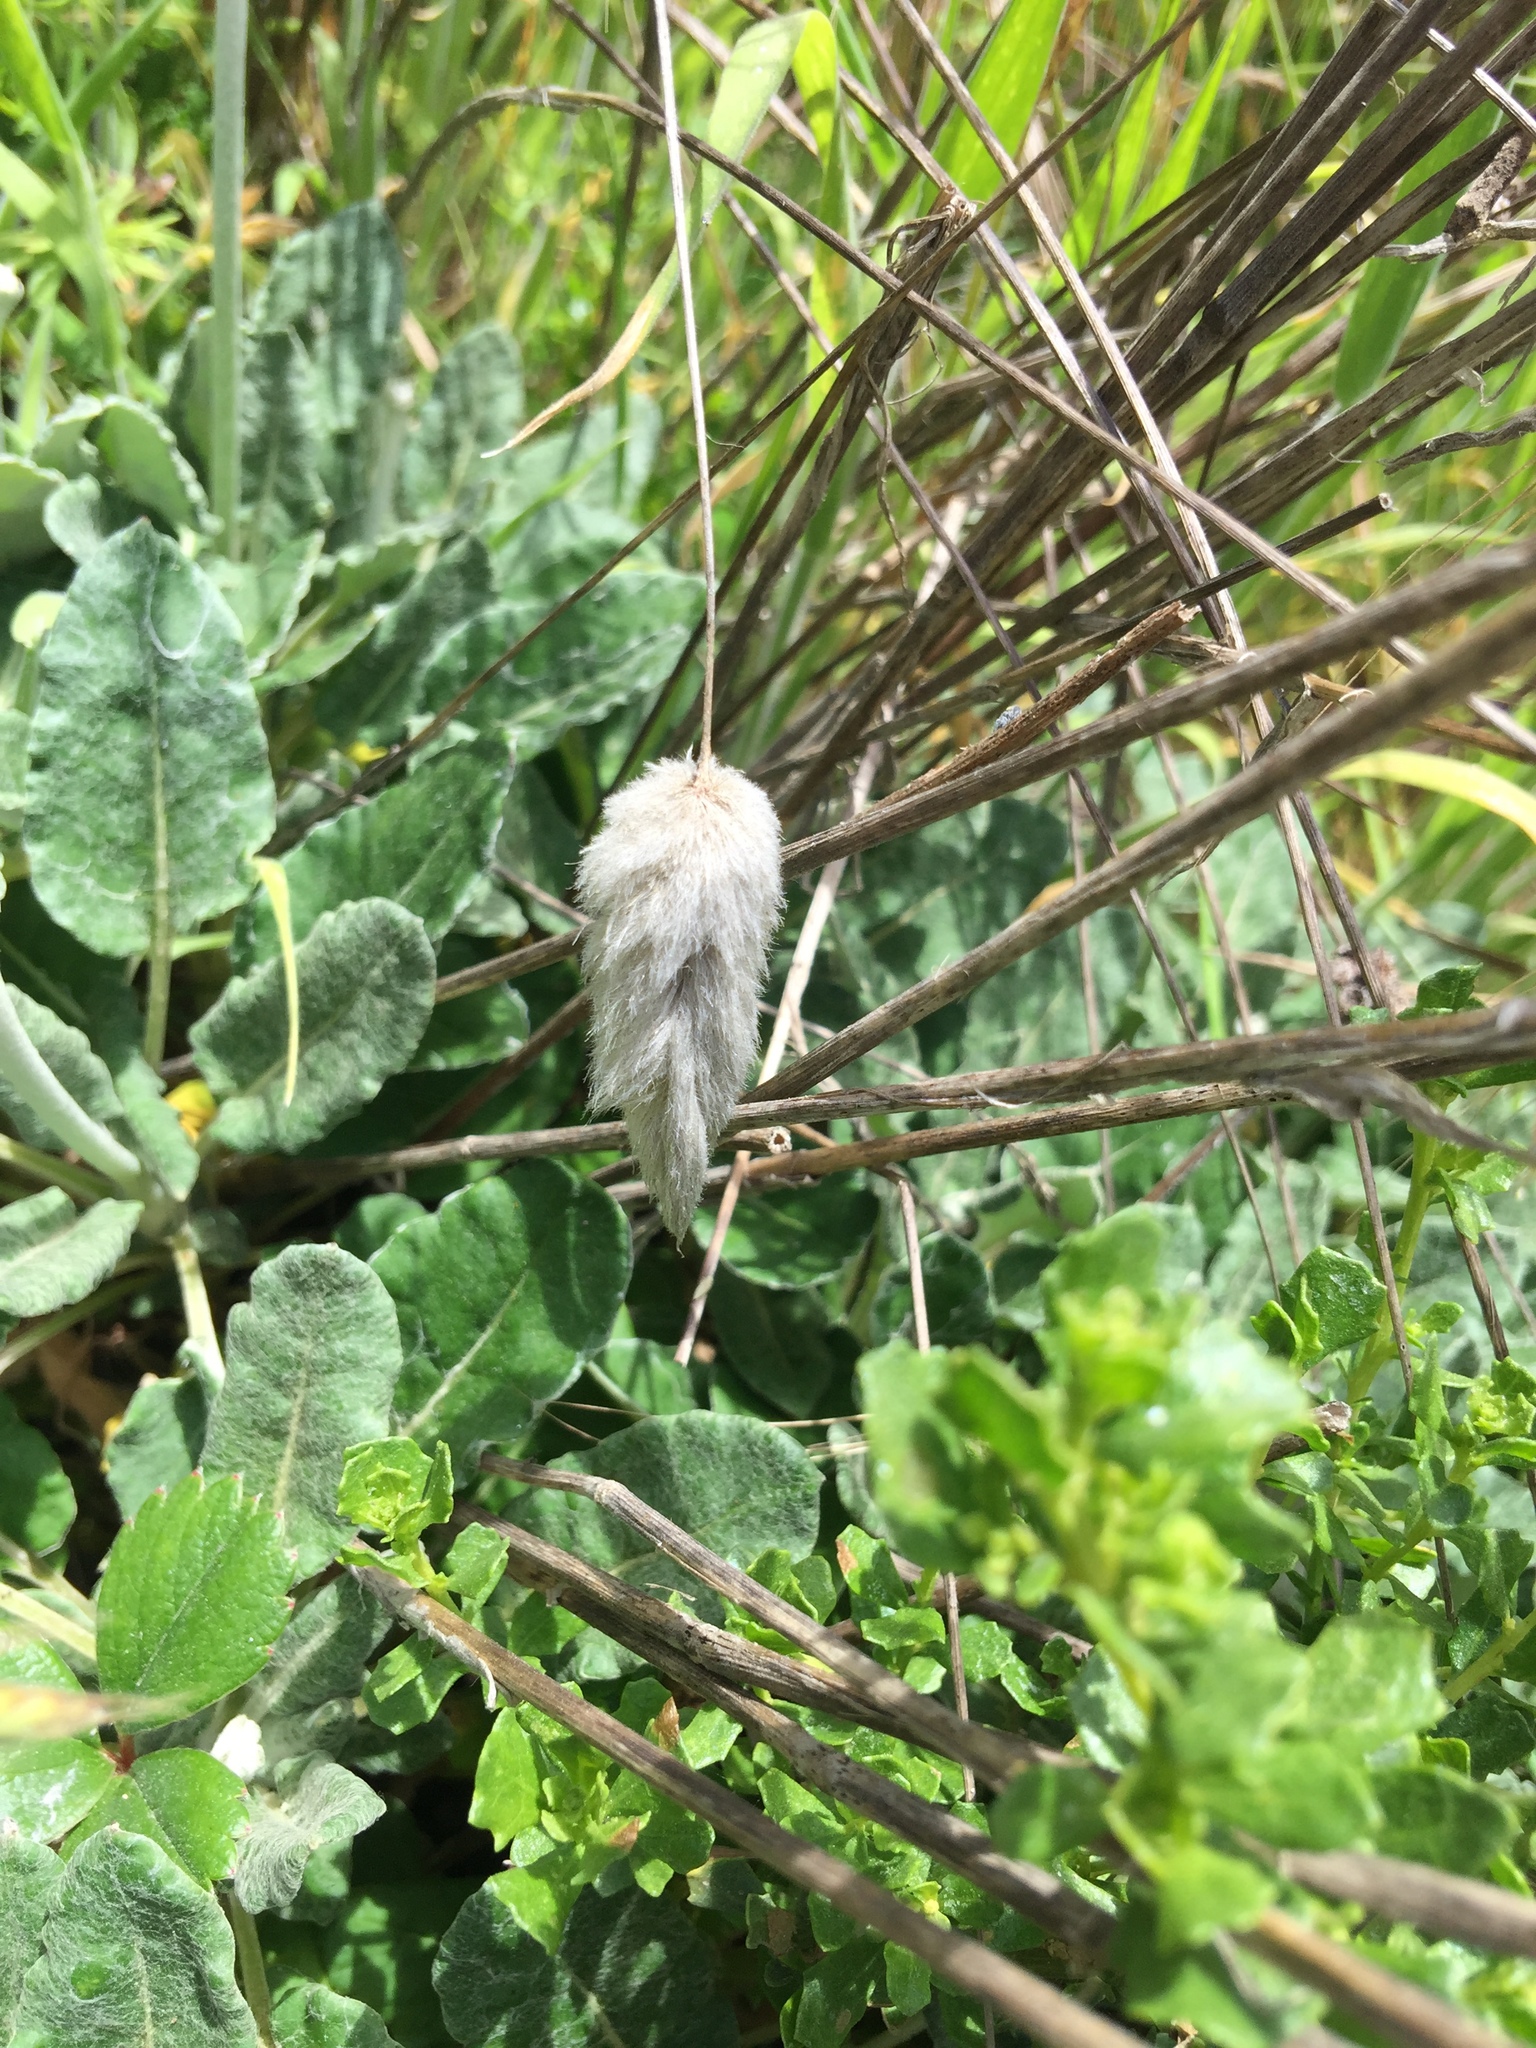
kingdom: Plantae
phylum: Tracheophyta
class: Liliopsida
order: Poales
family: Poaceae
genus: Lagurus
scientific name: Lagurus ovatus
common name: Hare's-tail
